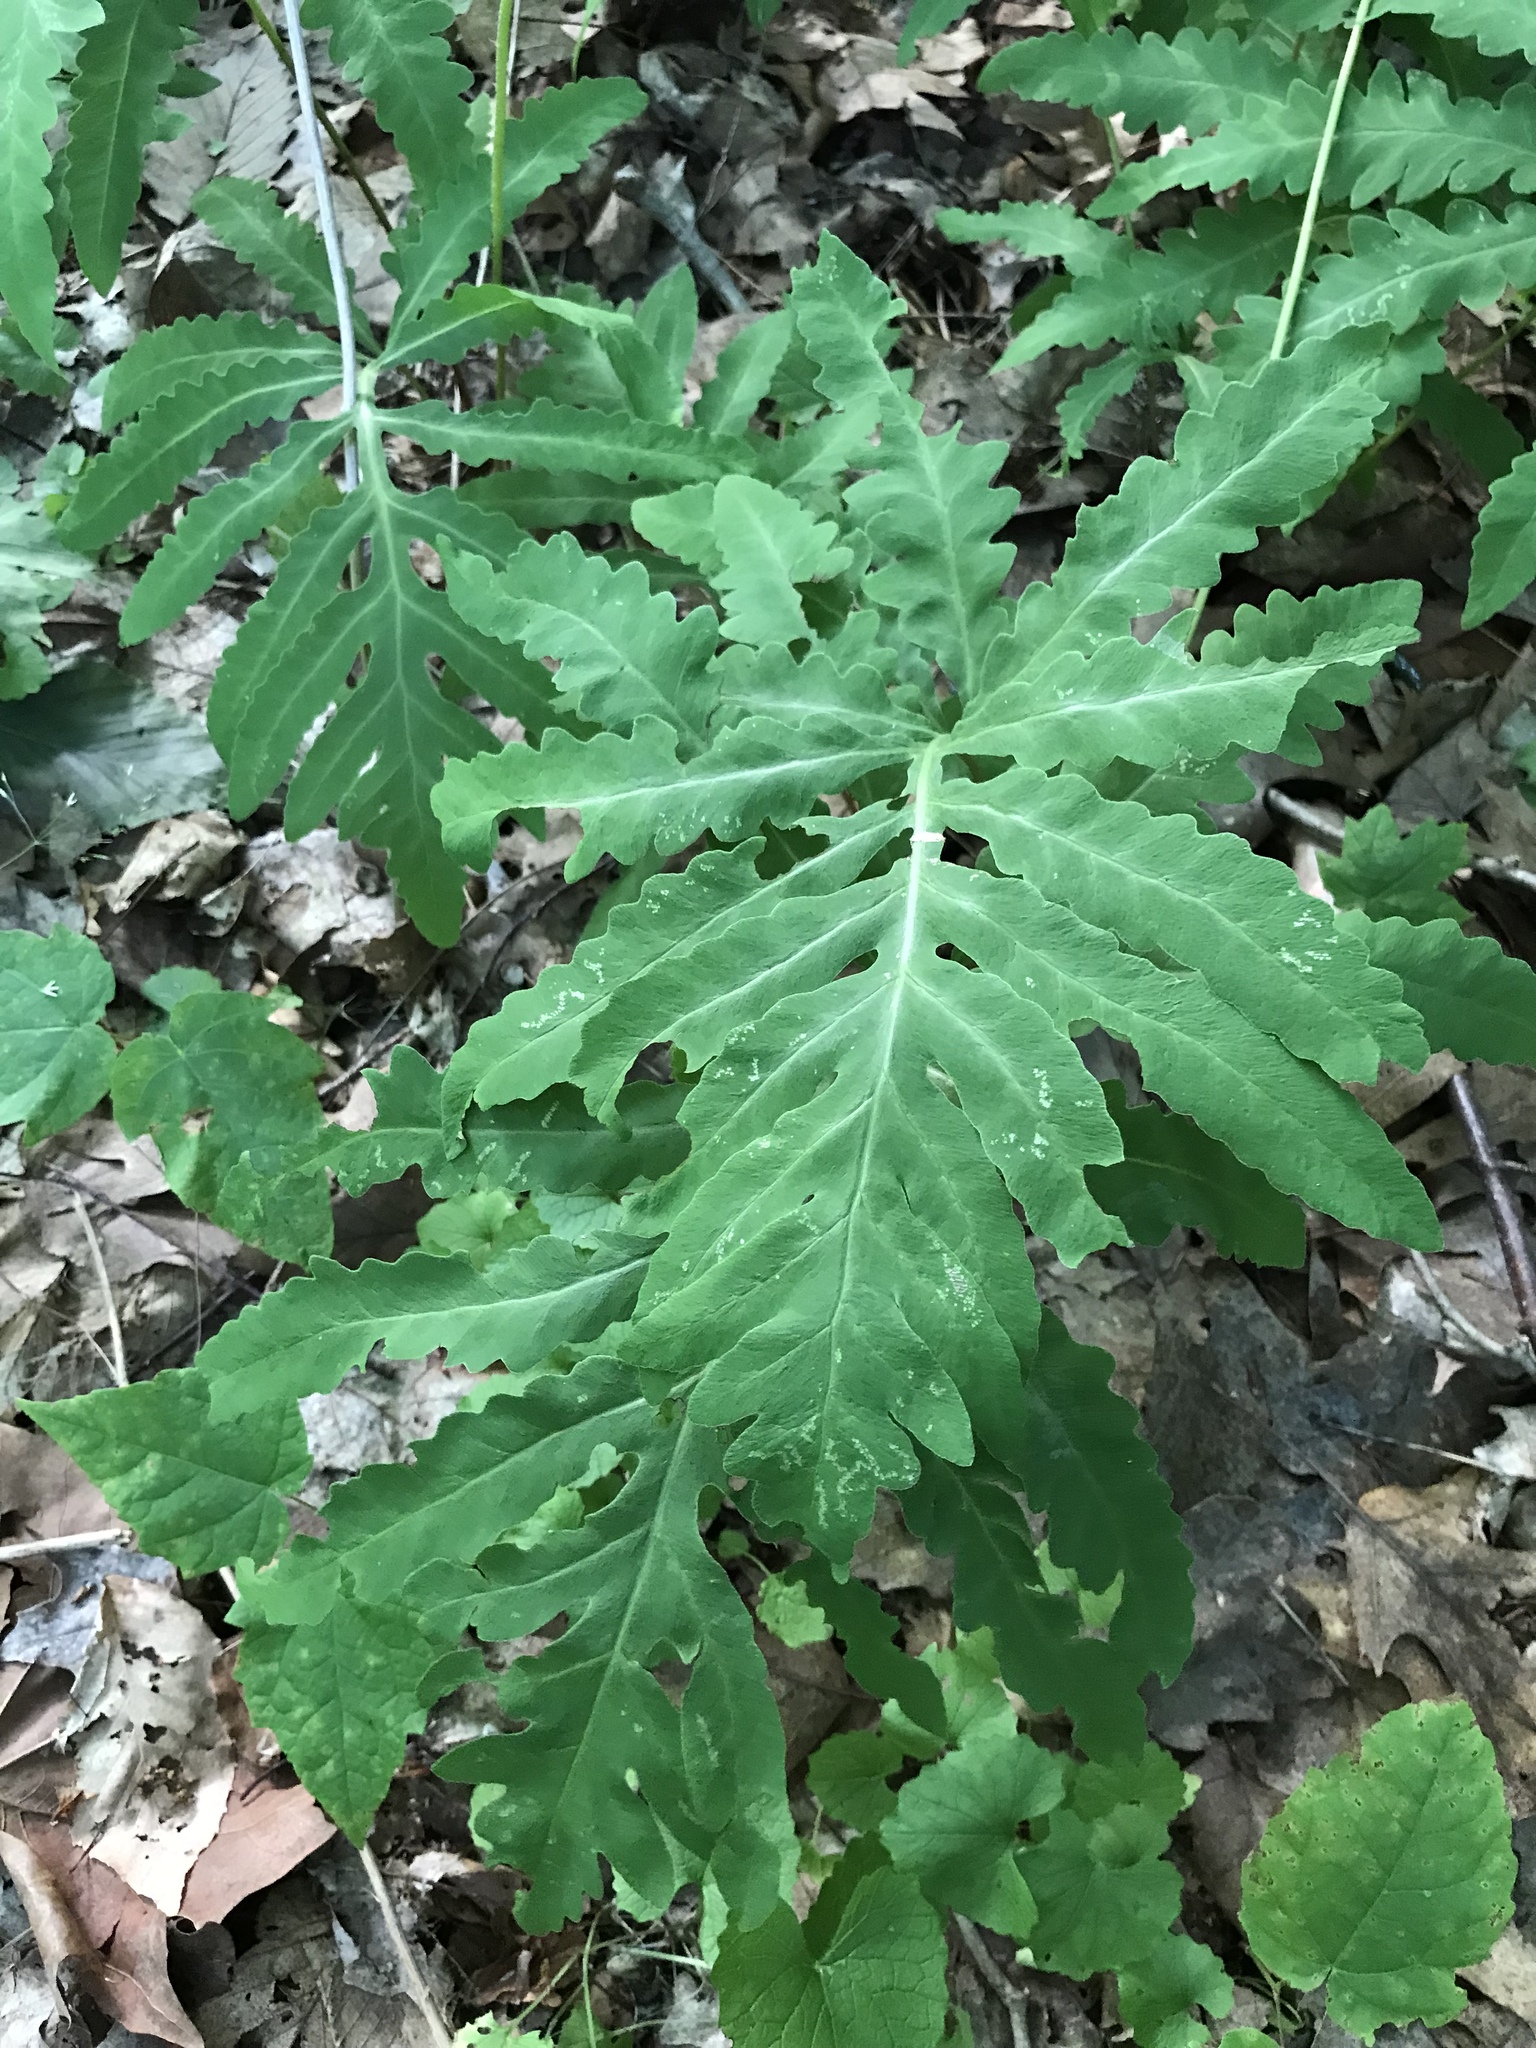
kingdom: Plantae
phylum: Tracheophyta
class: Polypodiopsida
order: Polypodiales
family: Onocleaceae
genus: Onoclea
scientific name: Onoclea sensibilis
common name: Sensitive fern
